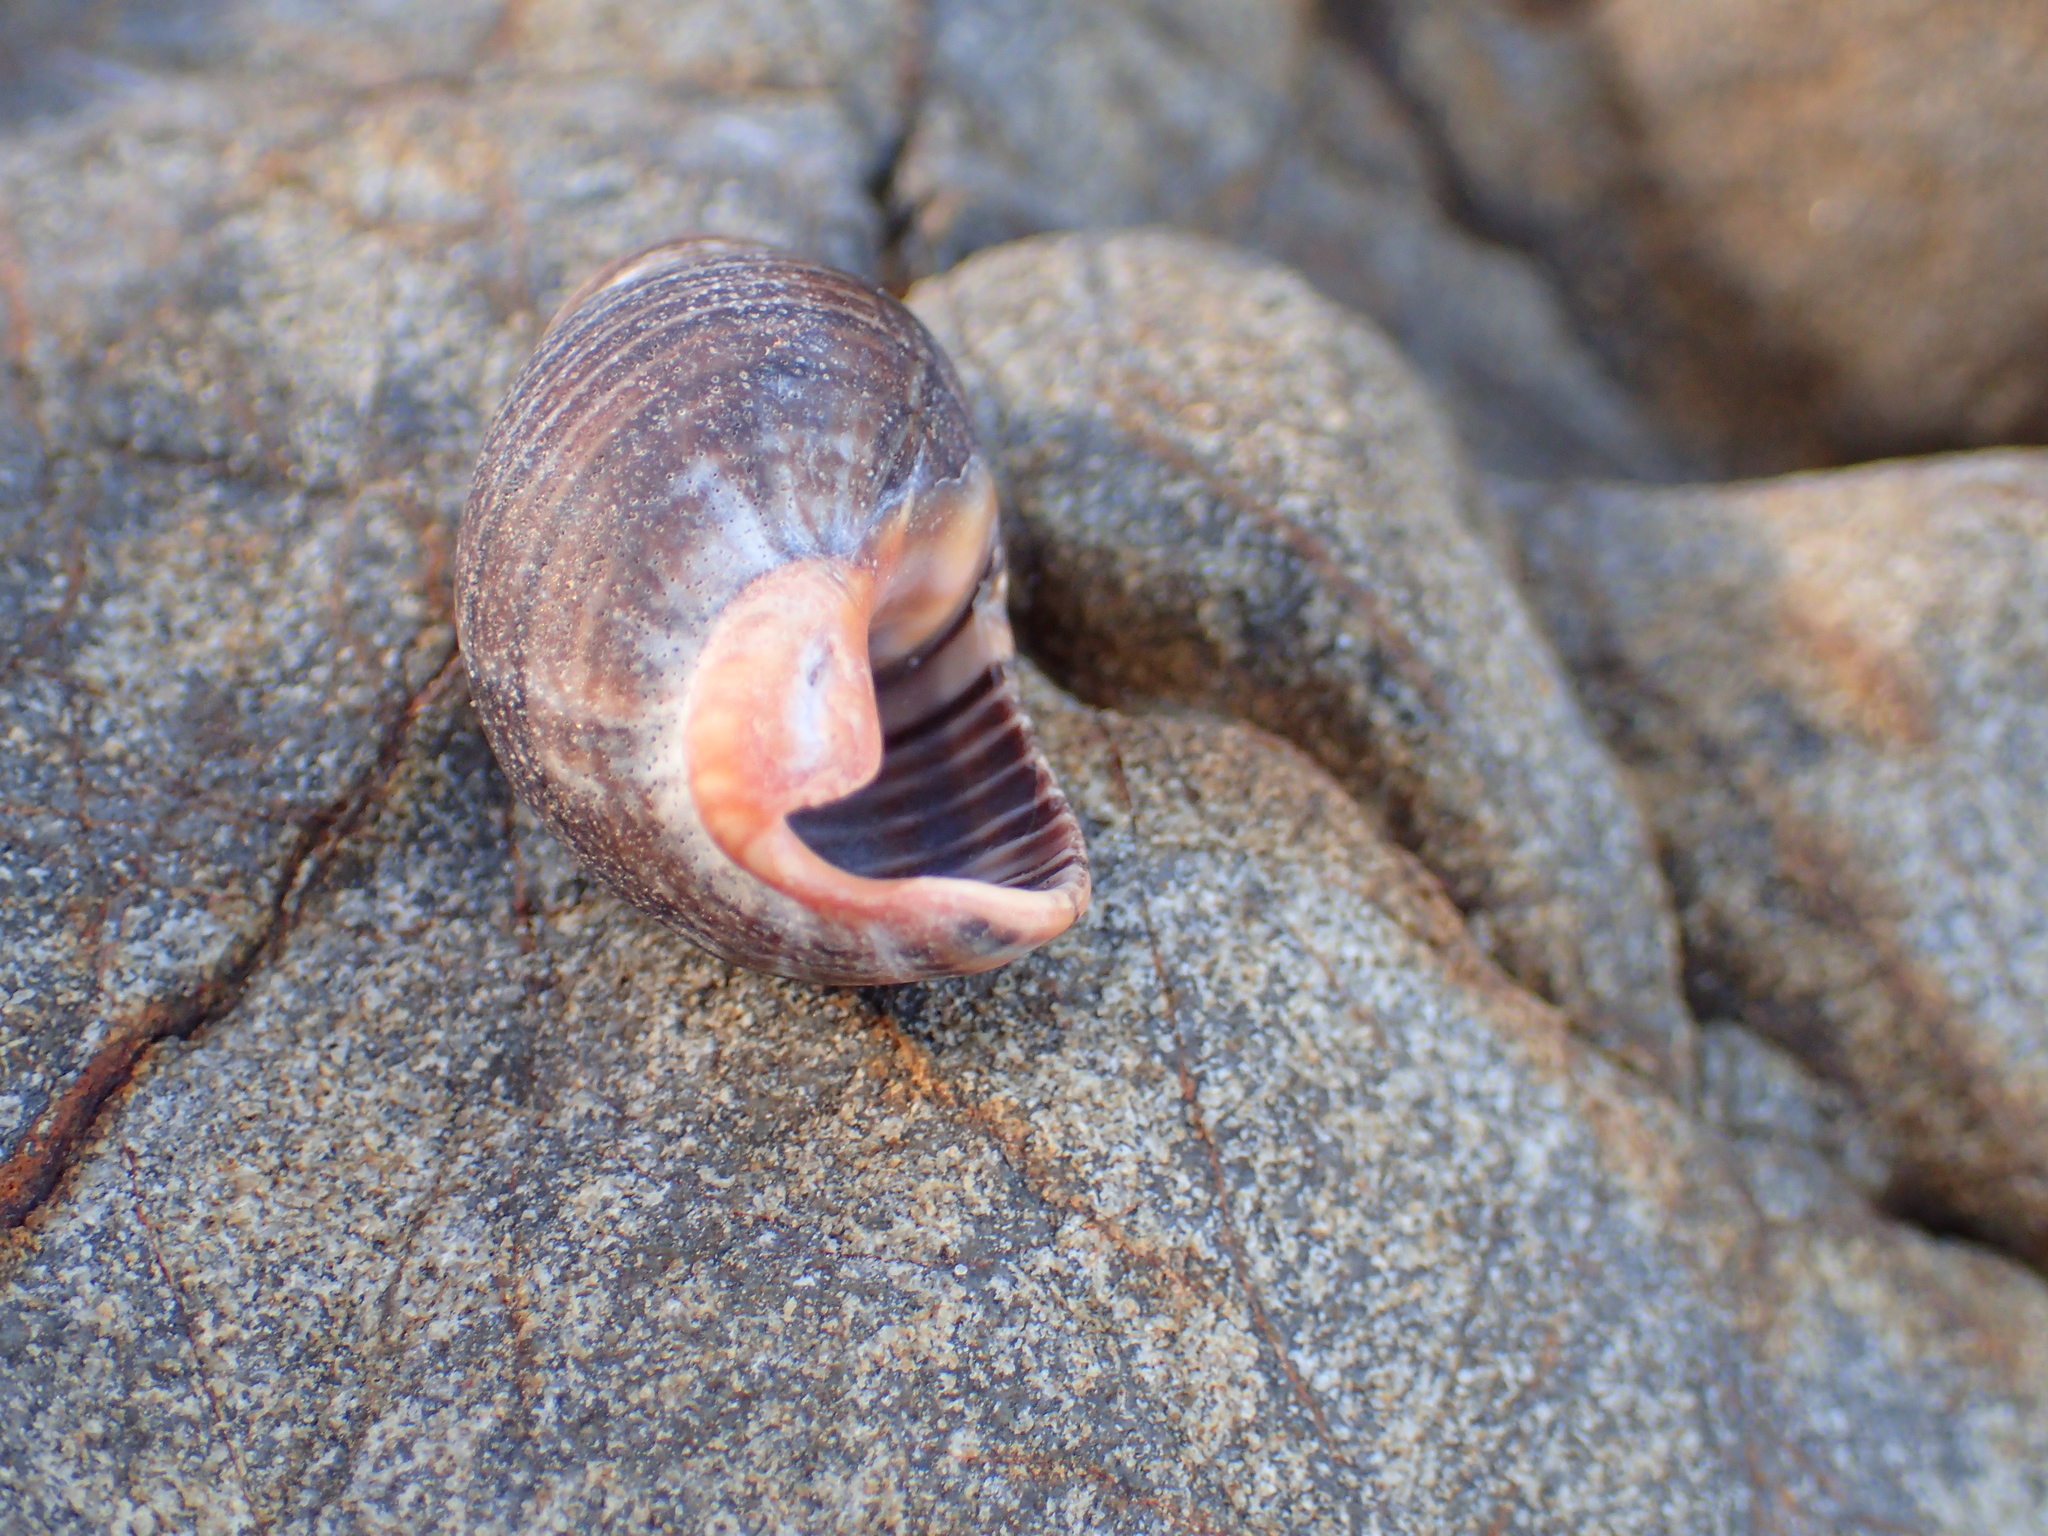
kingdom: Animalia
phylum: Mollusca
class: Gastropoda
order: Neogastropoda
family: Cominellidae
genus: Cominella
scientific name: Cominella virgata
